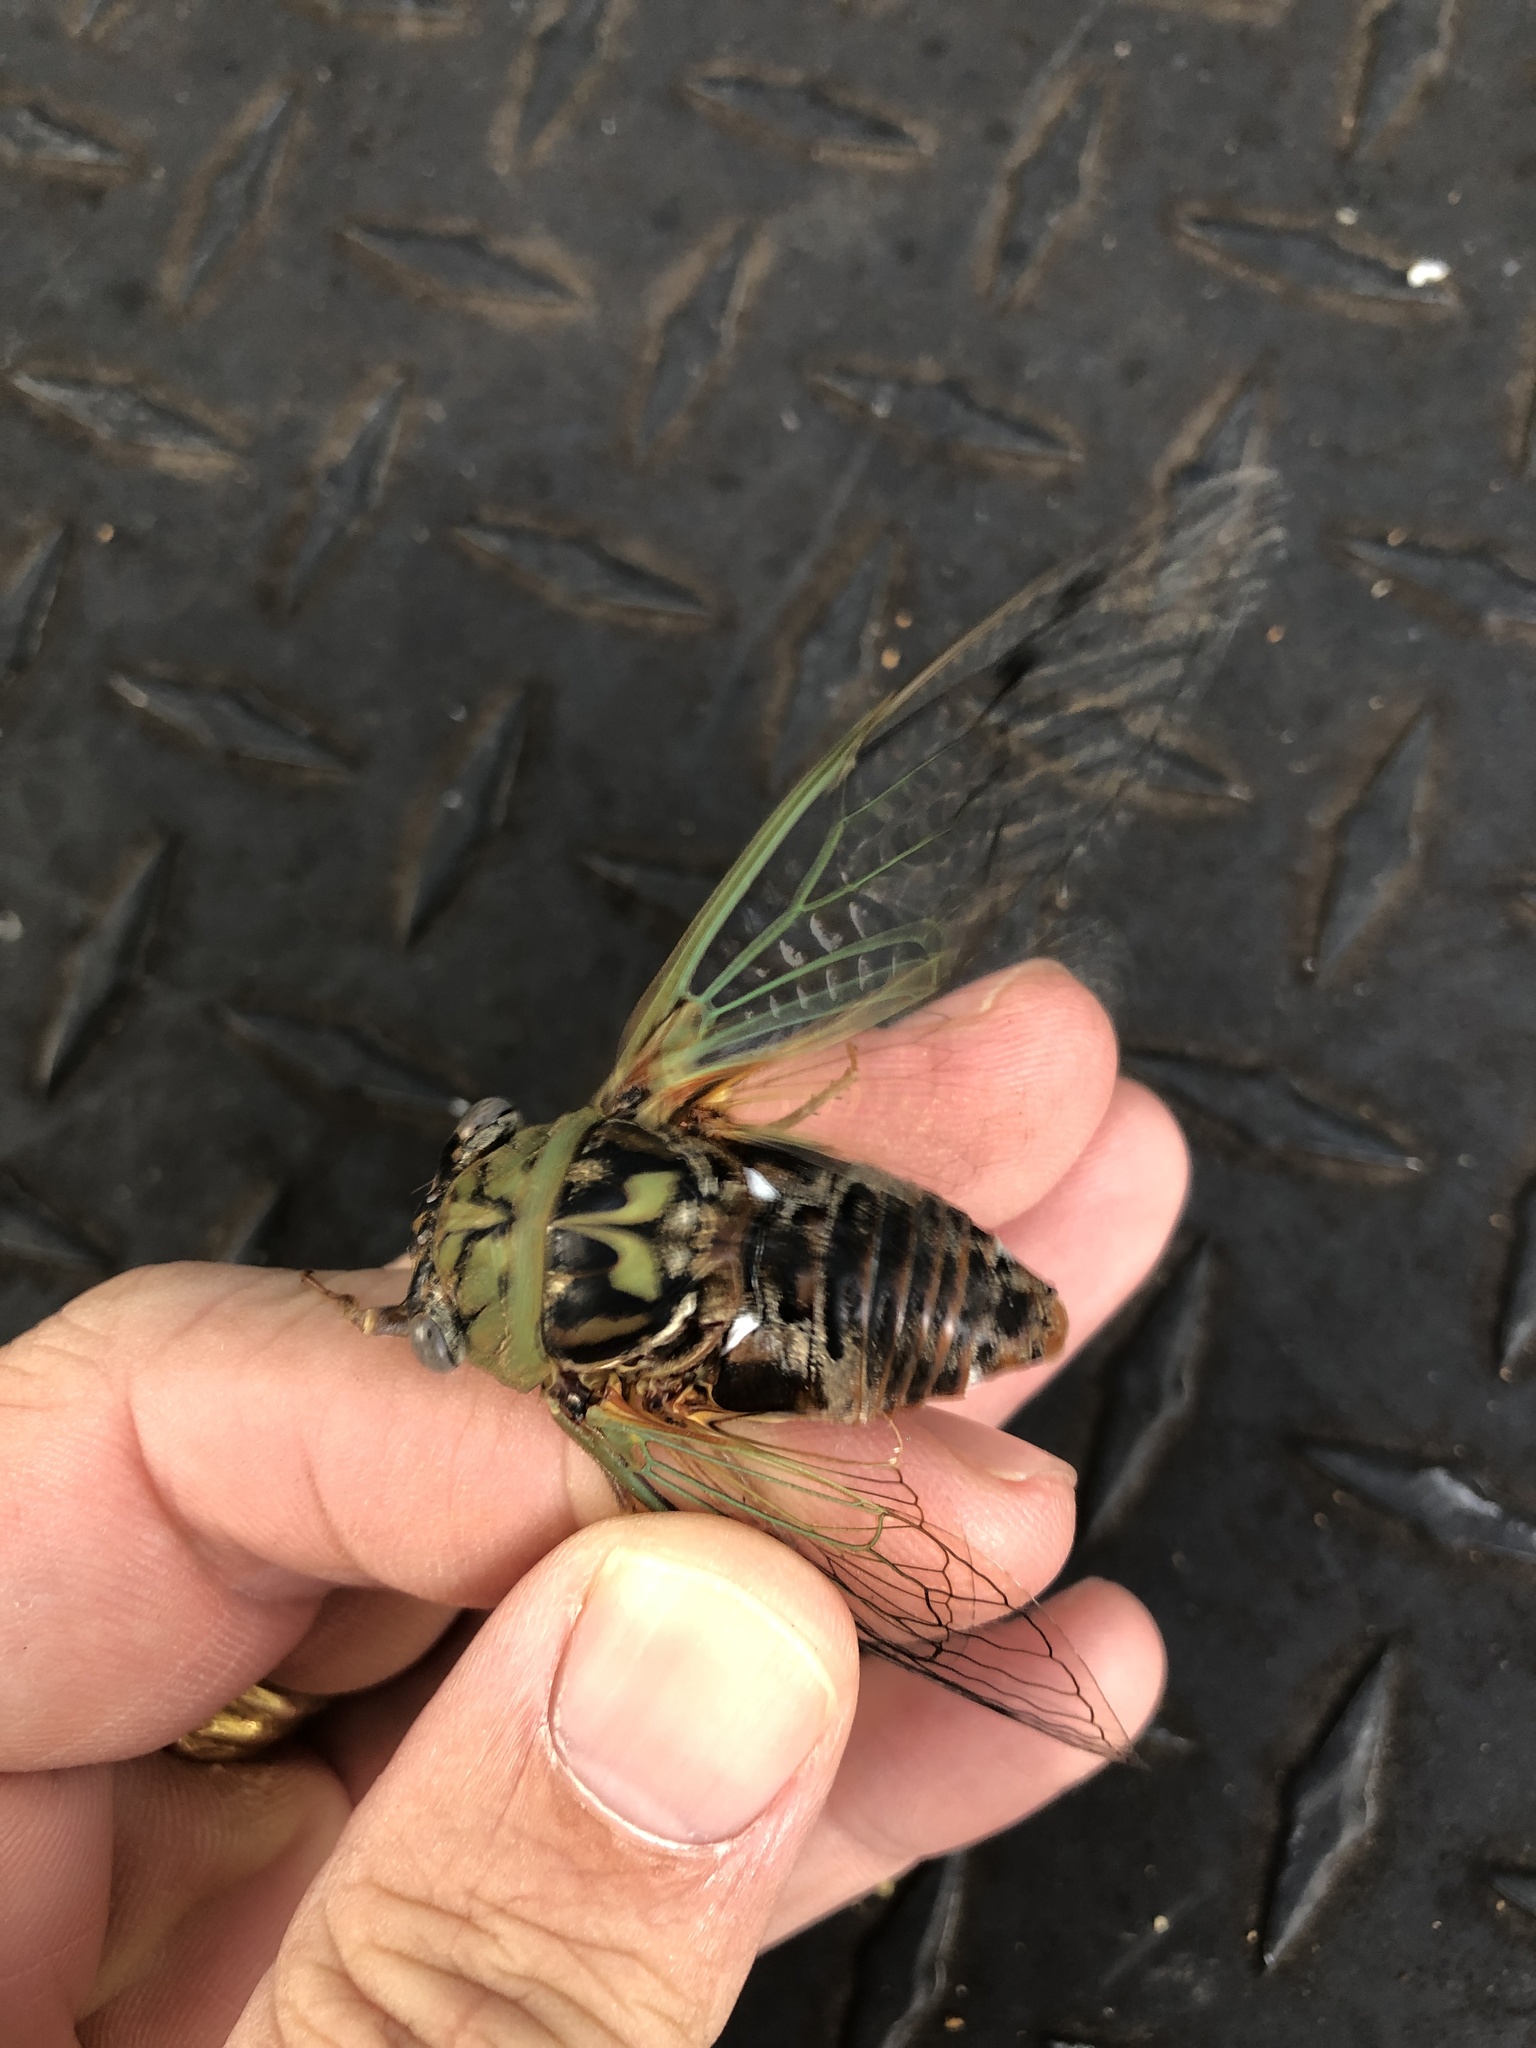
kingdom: Animalia
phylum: Arthropoda
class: Insecta
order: Hemiptera
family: Cicadidae
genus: Megatibicen
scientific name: Megatibicen resh
